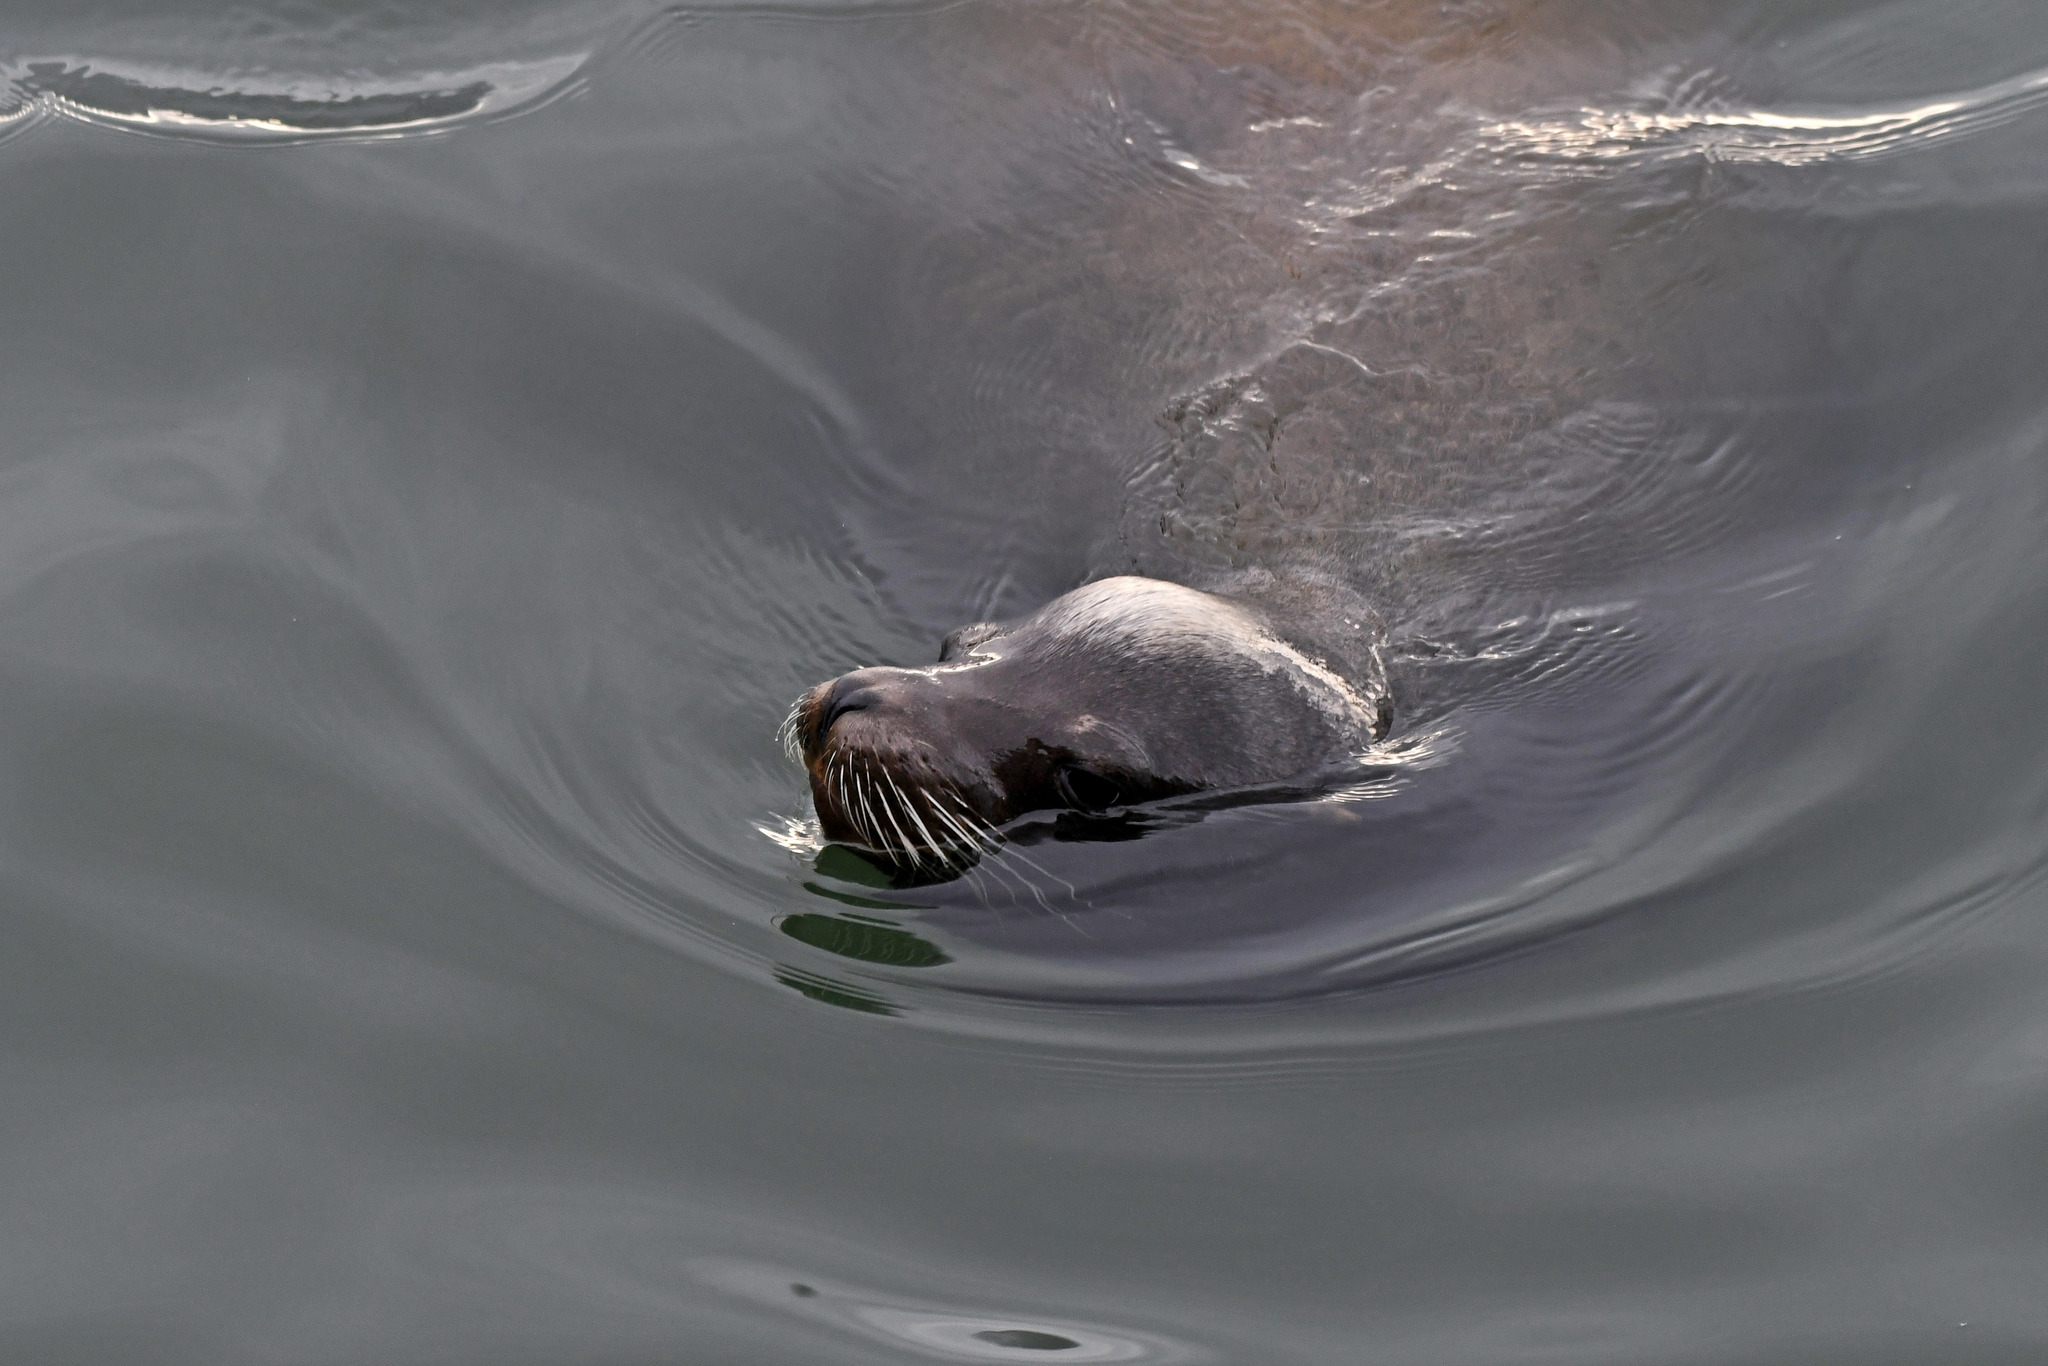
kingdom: Animalia
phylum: Chordata
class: Mammalia
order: Carnivora
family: Otariidae
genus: Zalophus
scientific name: Zalophus californianus
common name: California sea lion
